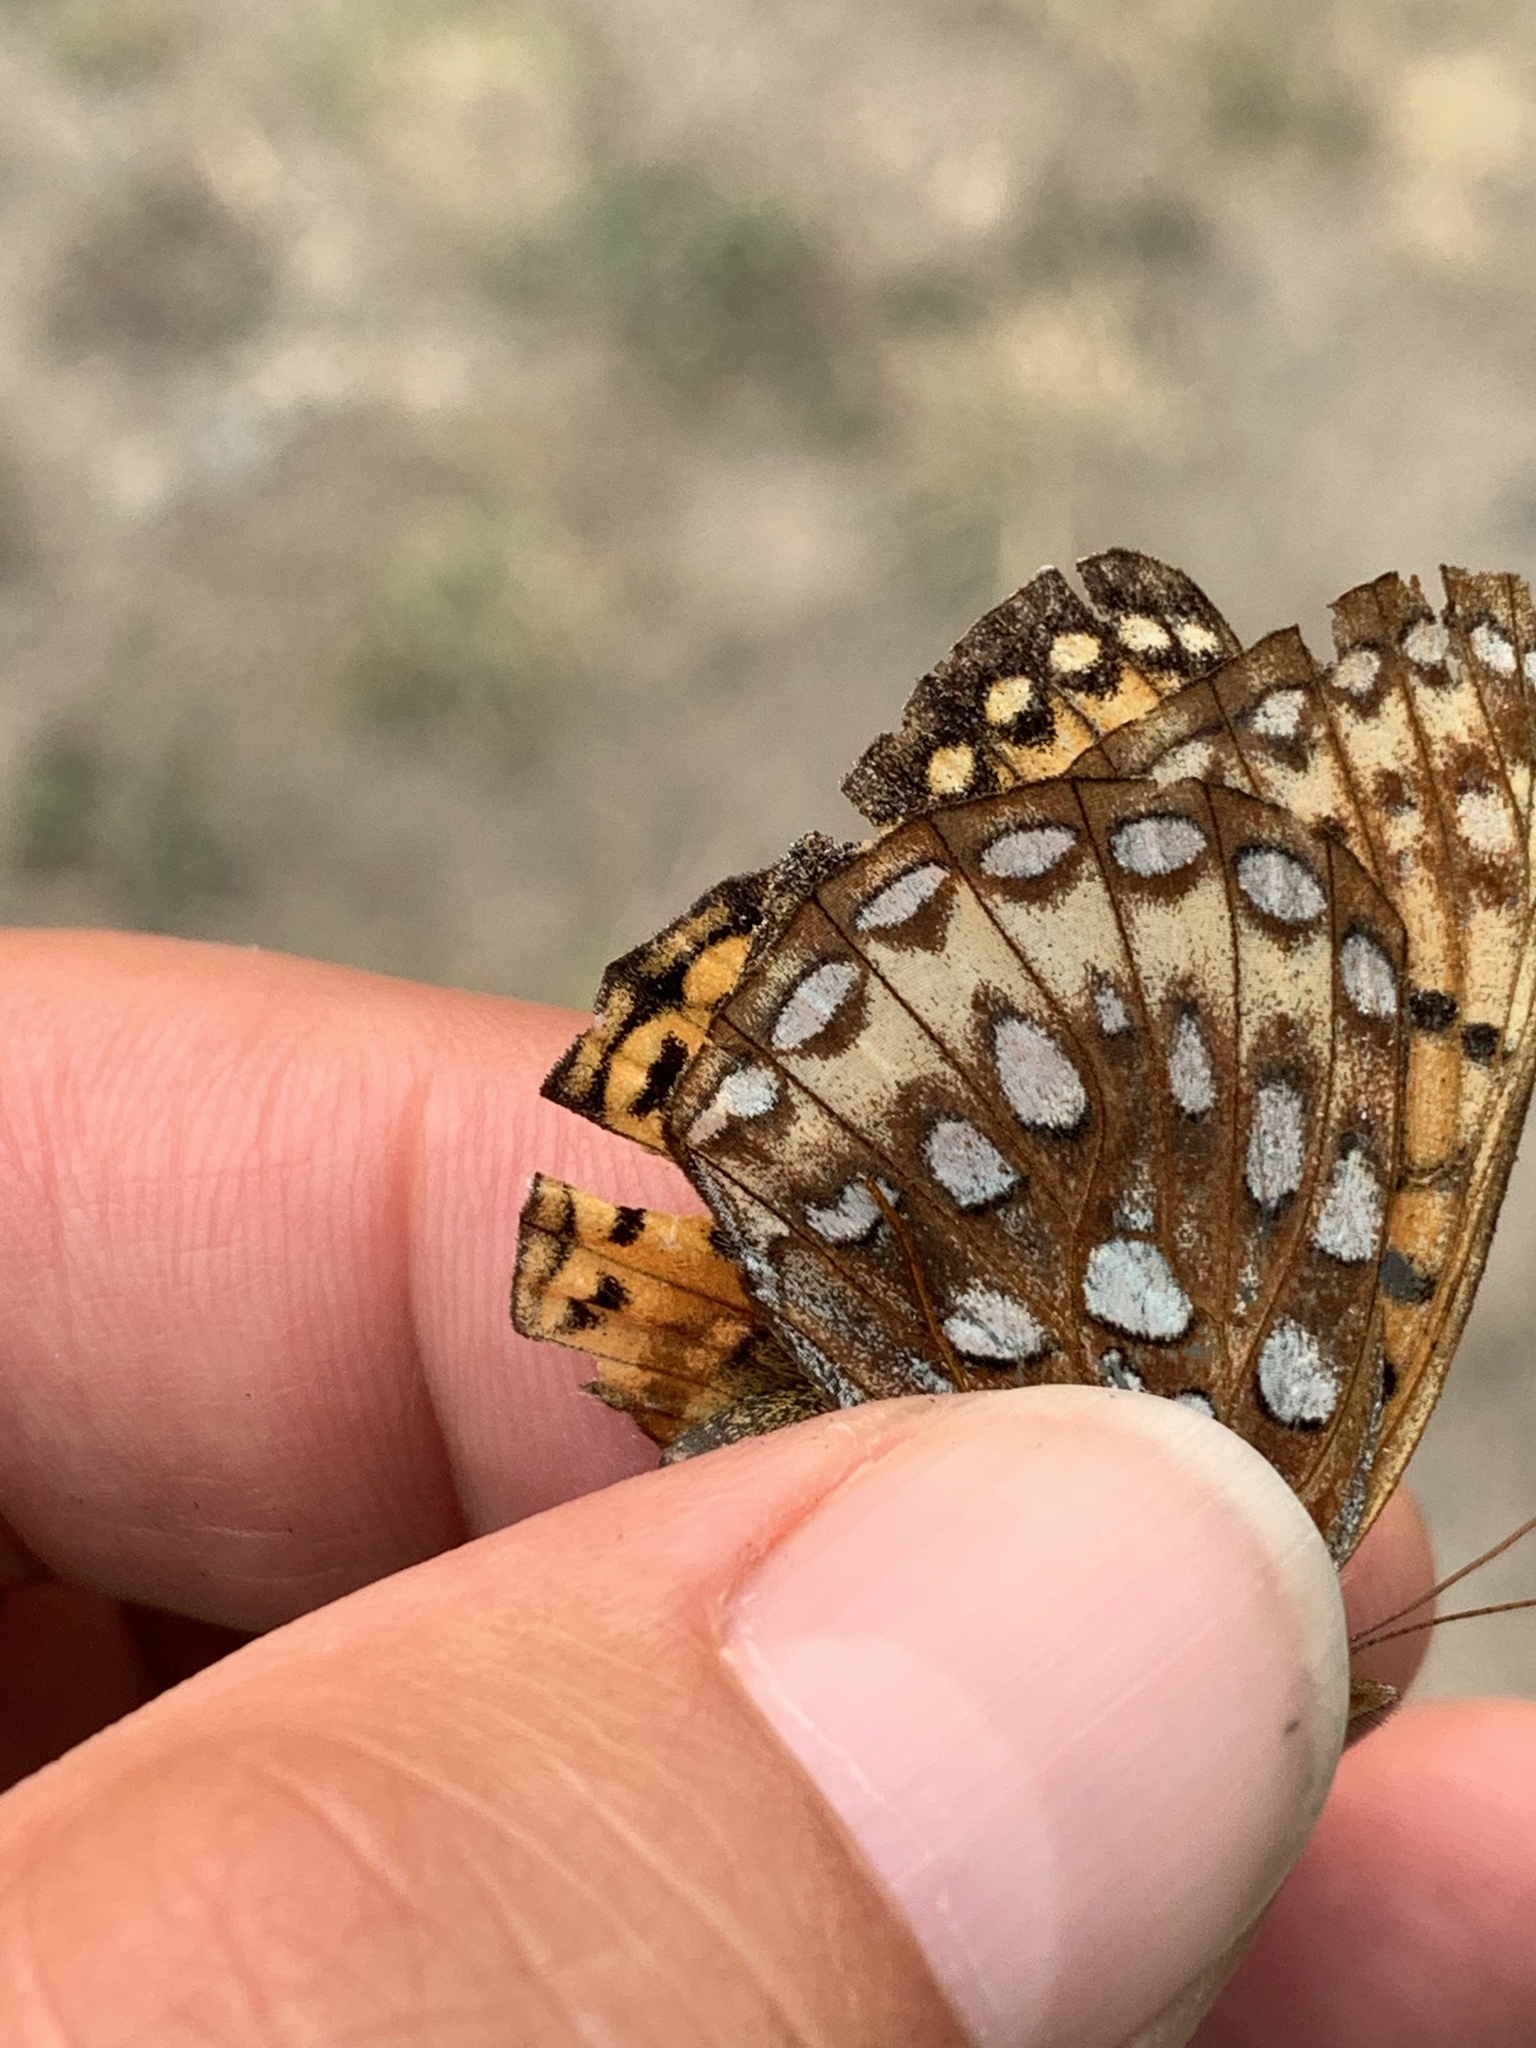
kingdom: Animalia
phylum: Arthropoda
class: Insecta
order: Lepidoptera
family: Nymphalidae
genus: Speyeria
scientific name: Speyeria atlantis
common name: Atlantis fritillary
